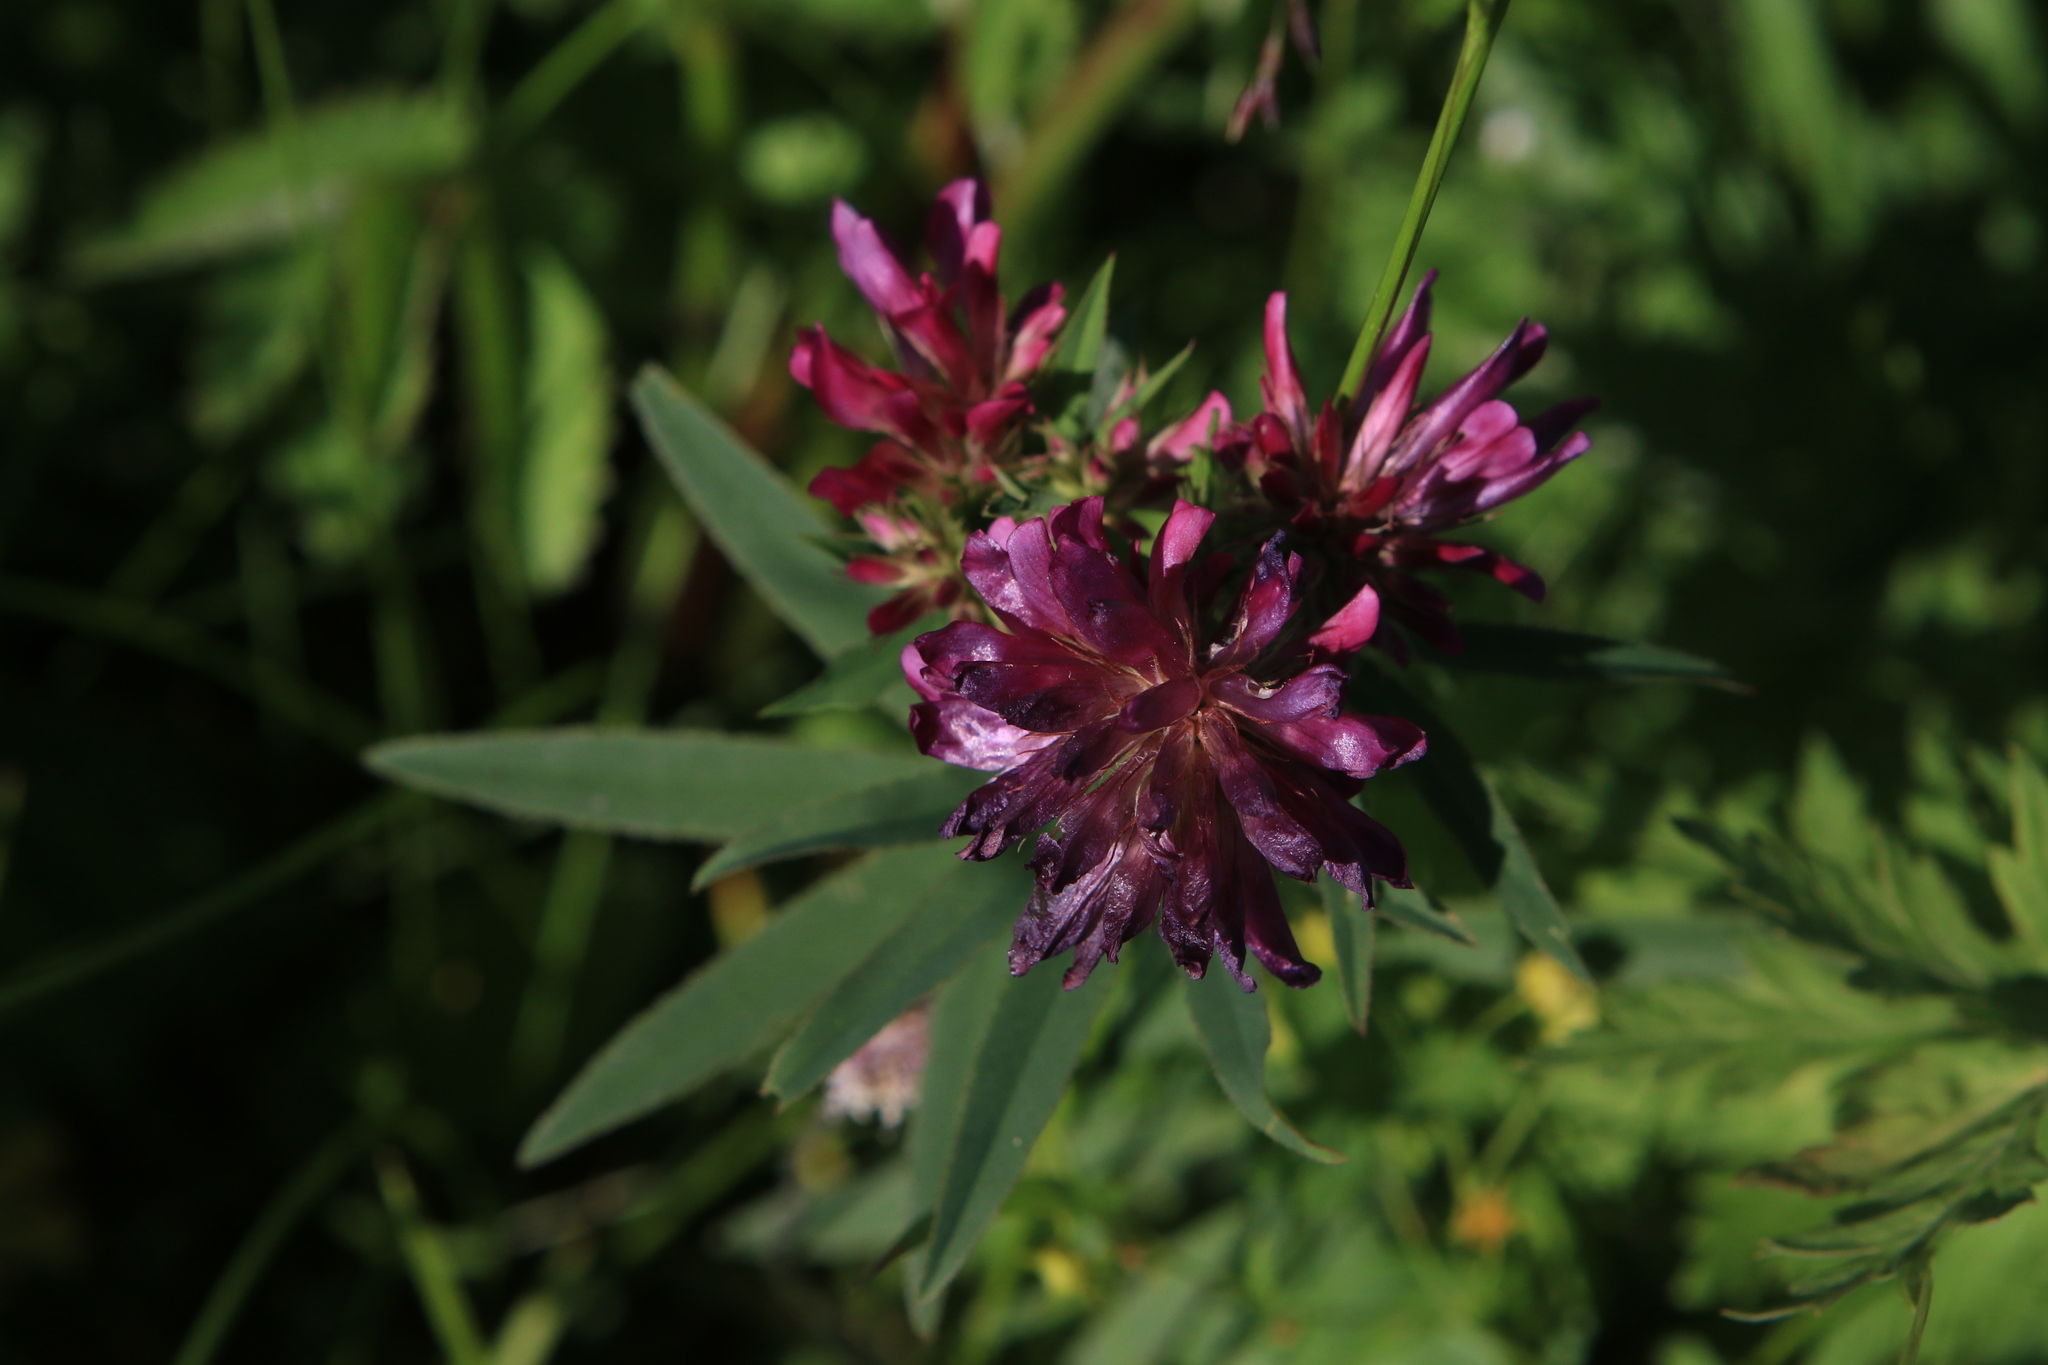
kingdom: Plantae
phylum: Tracheophyta
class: Magnoliopsida
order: Fabales
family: Fabaceae
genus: Trifolium
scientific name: Trifolium lupinaster
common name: Lupine clover
